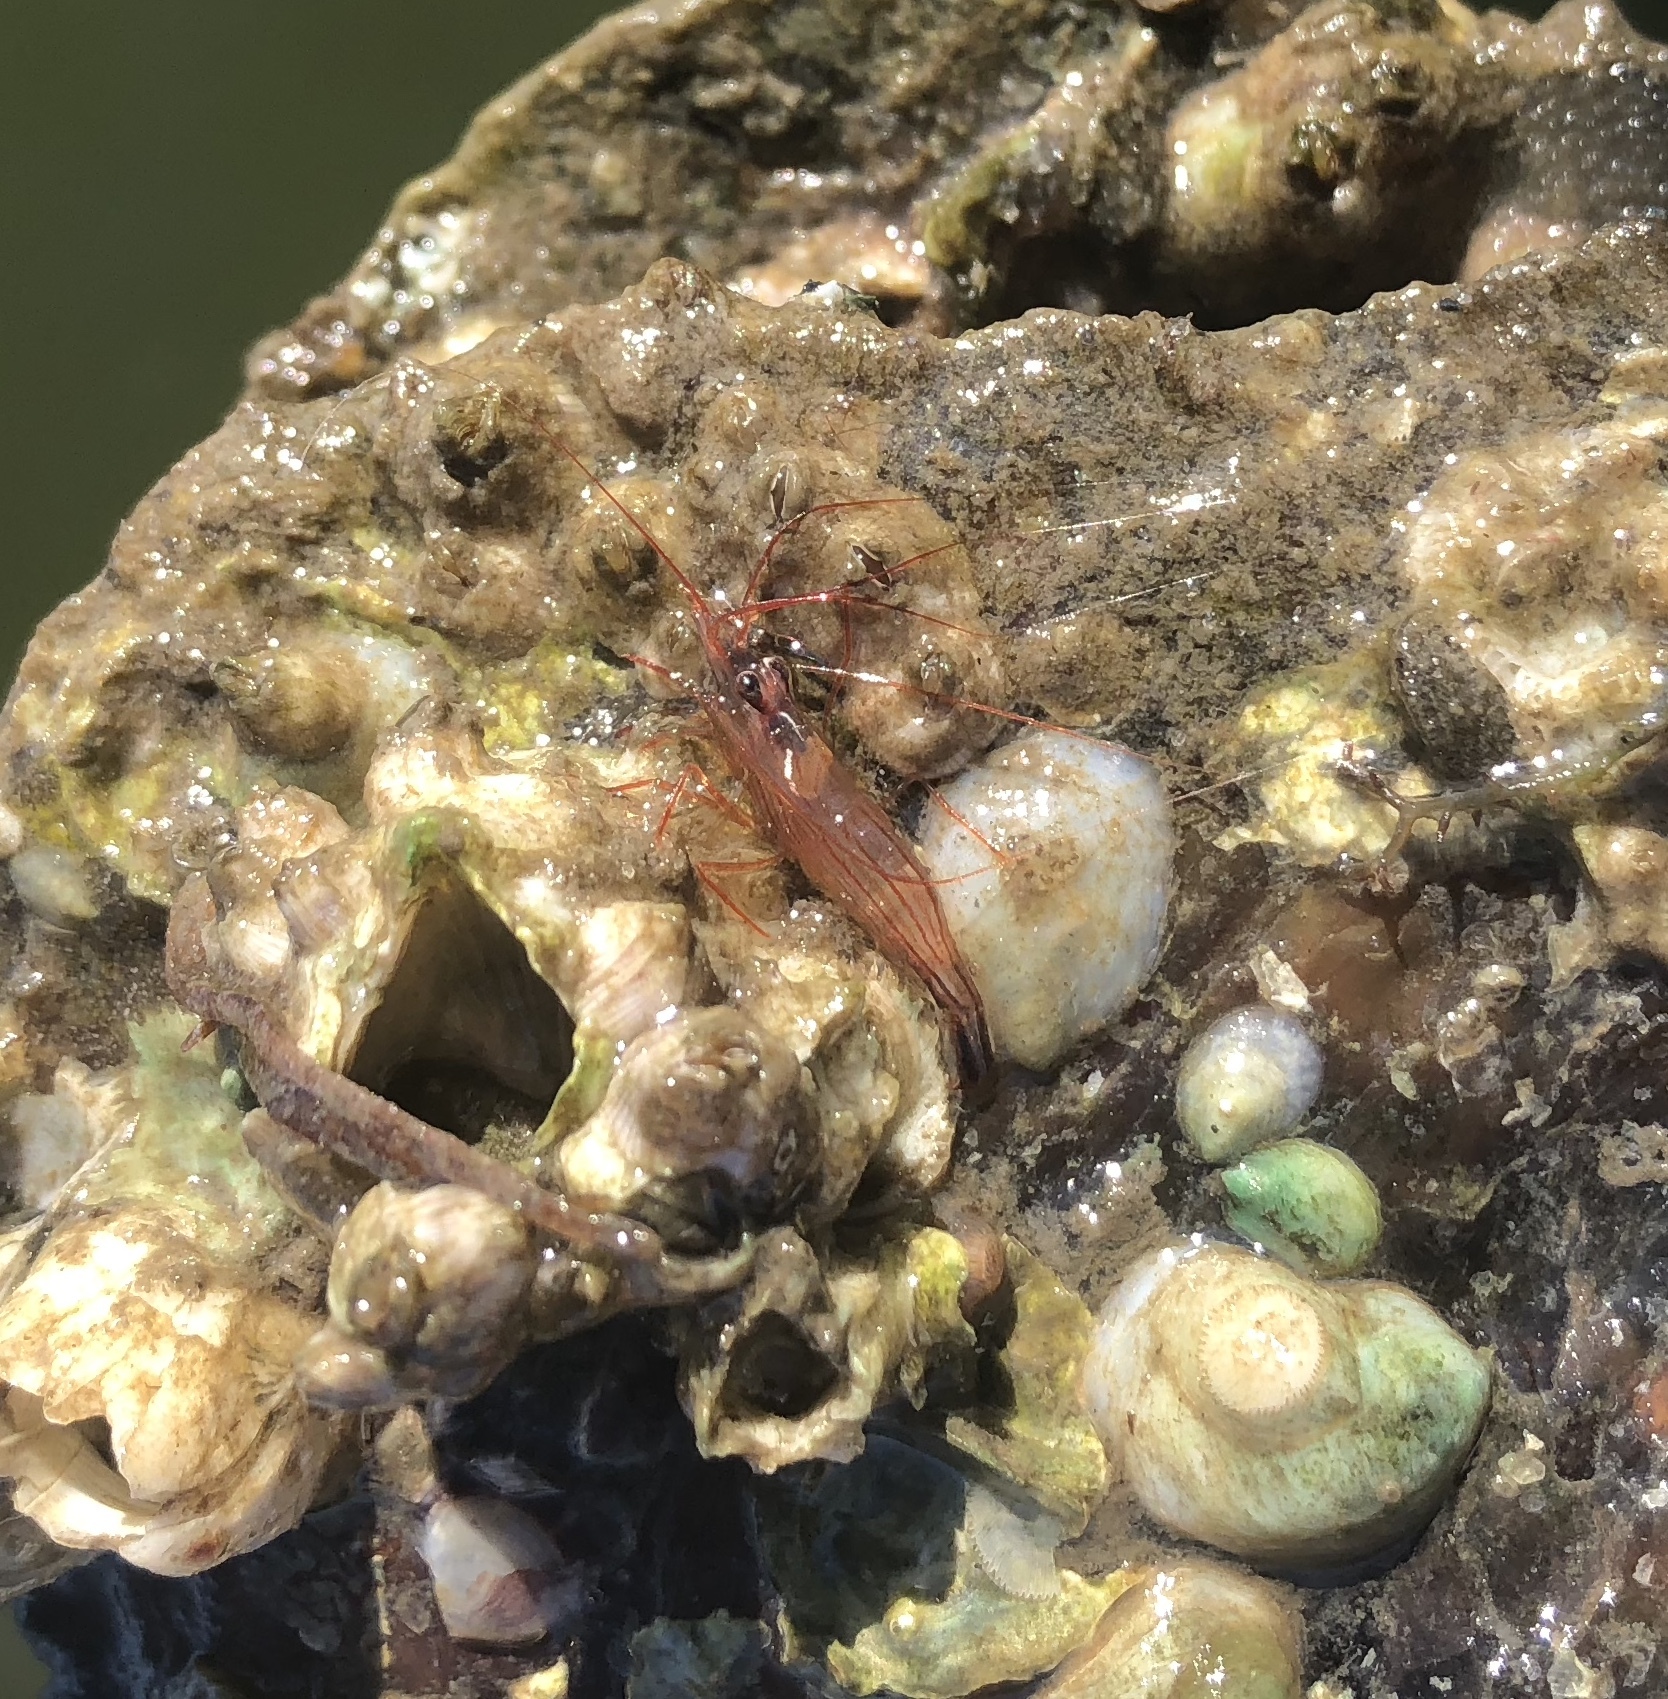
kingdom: Animalia
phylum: Arthropoda
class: Malacostraca
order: Decapoda
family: Lysmatidae
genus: Lysmata
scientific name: Lysmata boggessi
